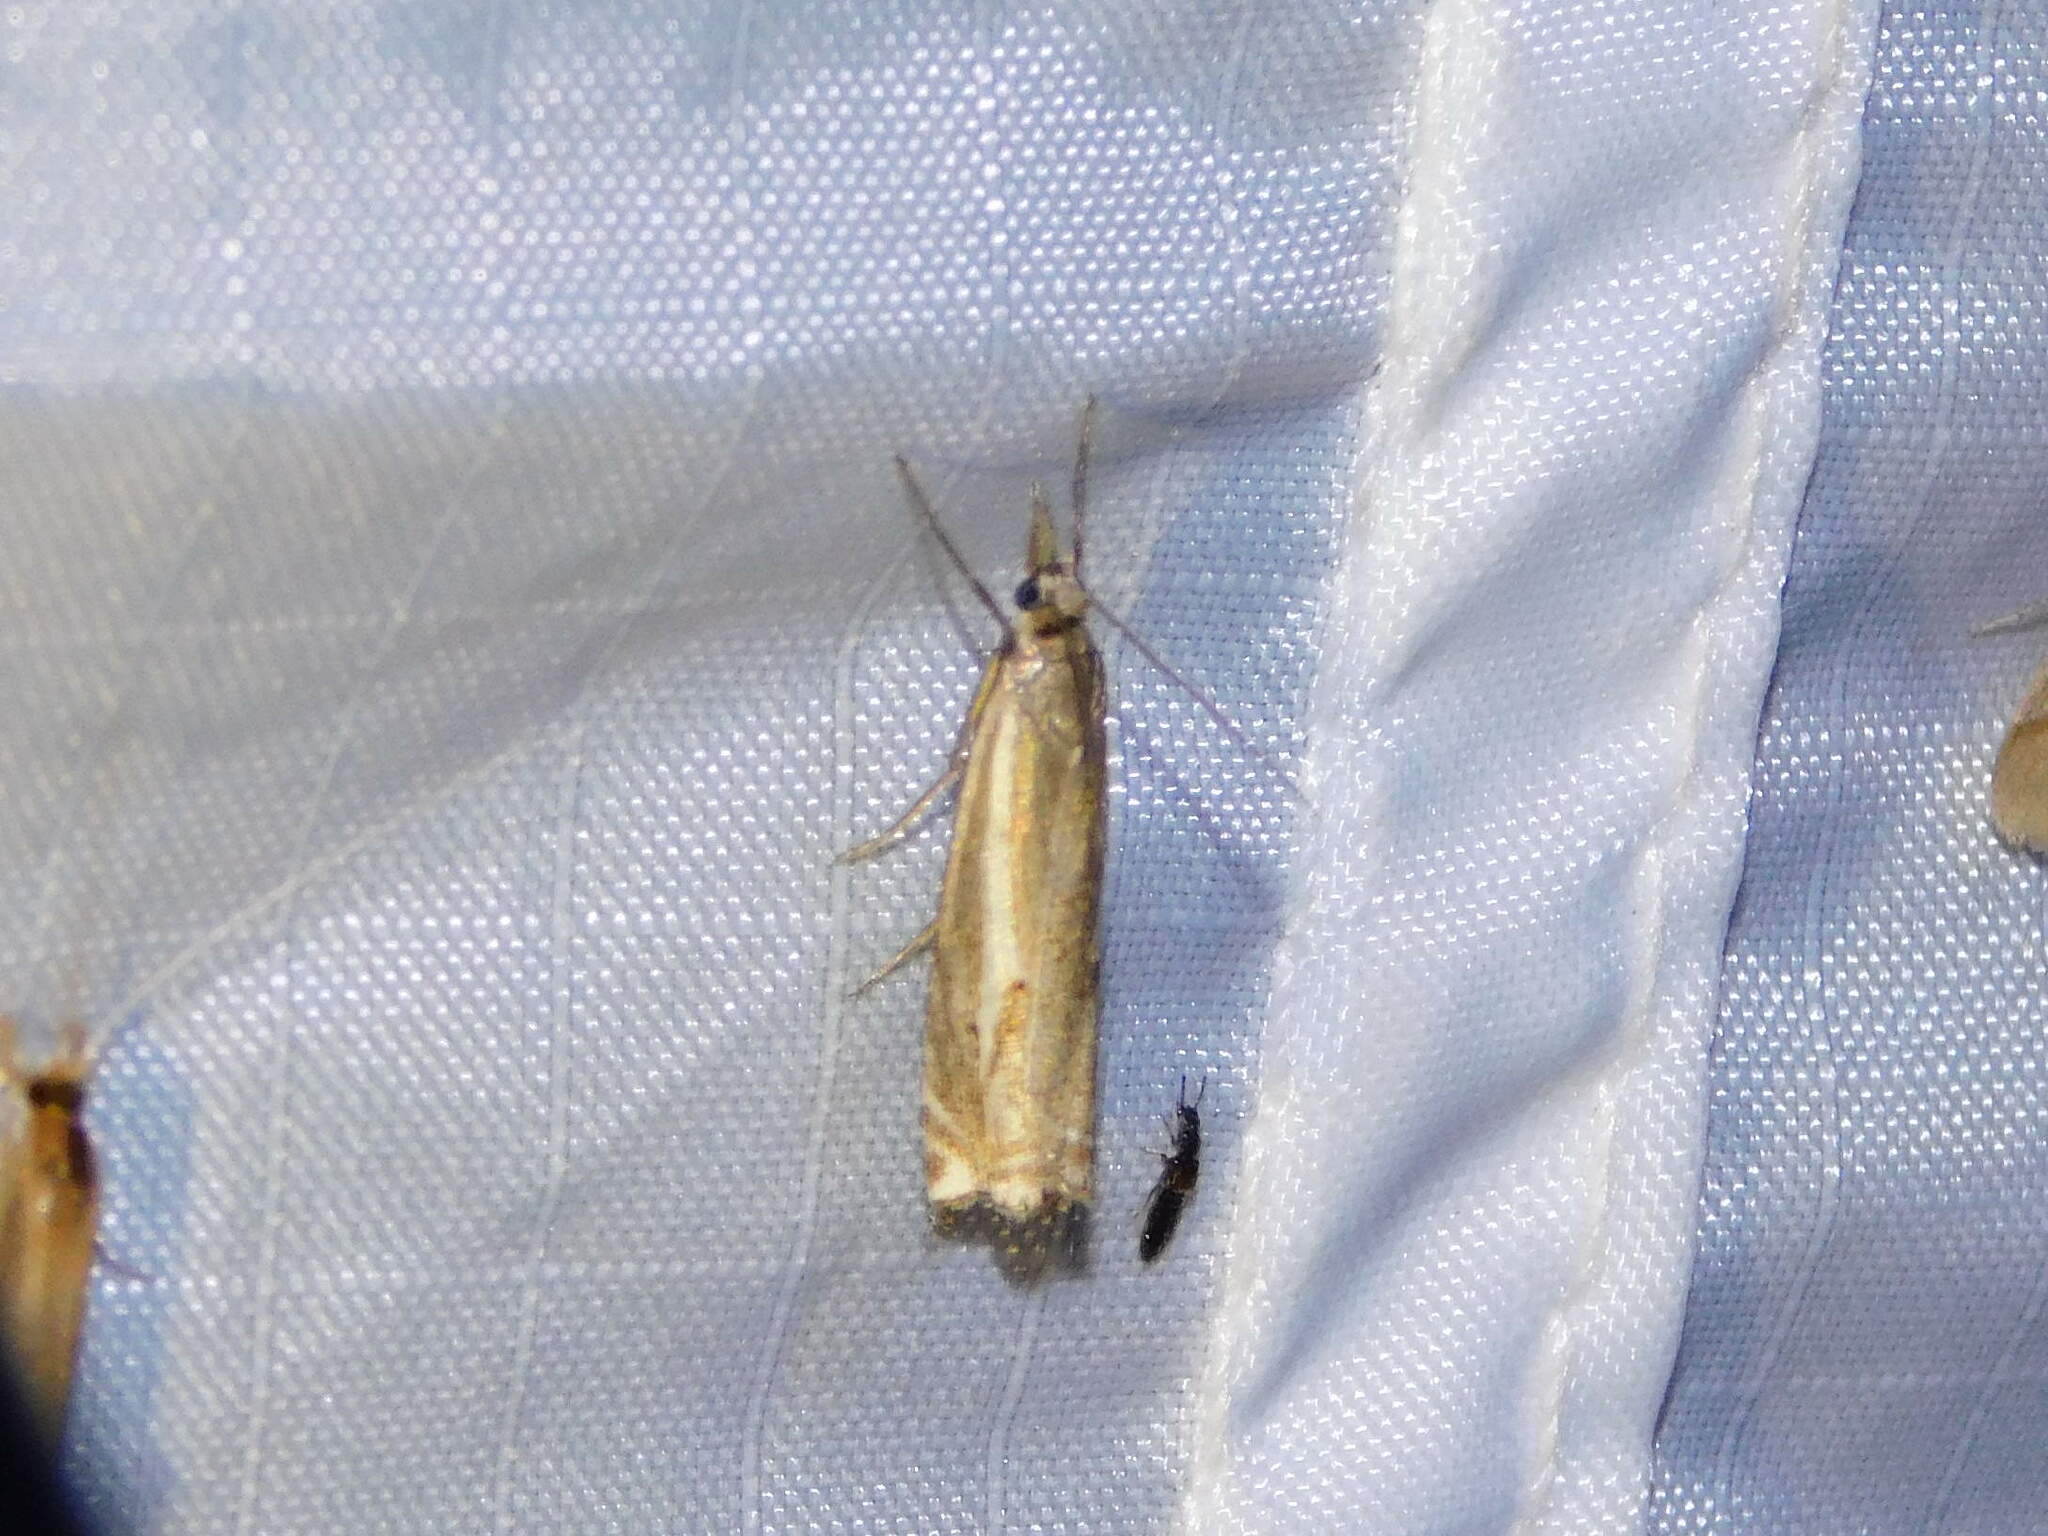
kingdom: Animalia
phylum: Arthropoda
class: Insecta
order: Lepidoptera
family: Crambidae
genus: Crambus
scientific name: Crambus nemorella
